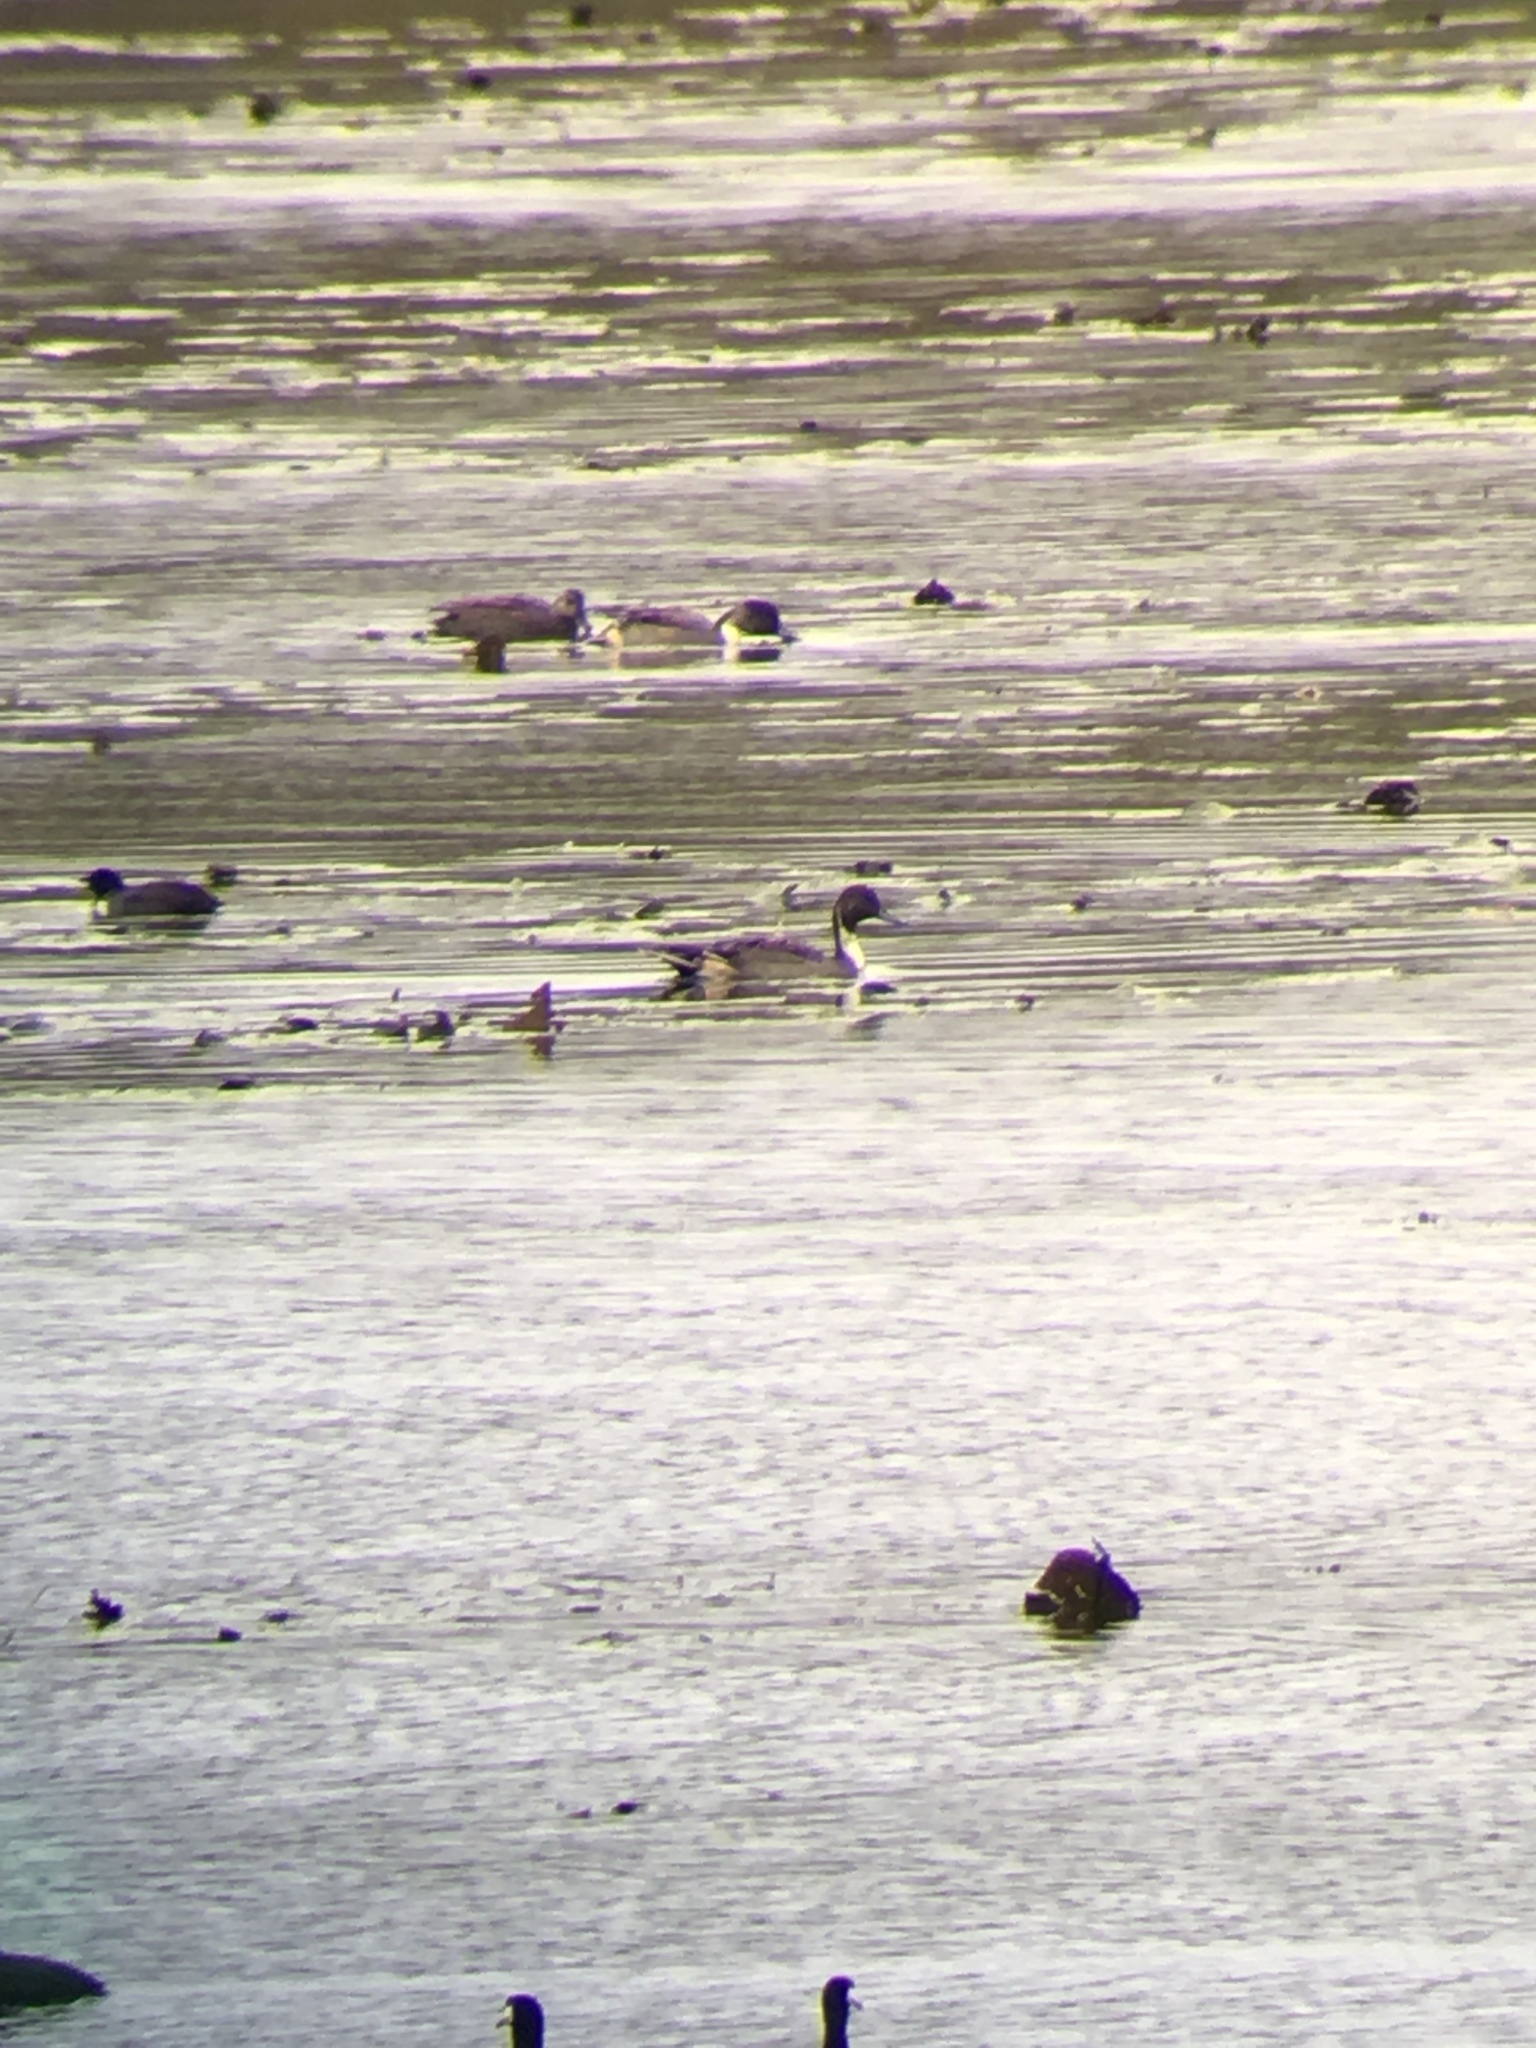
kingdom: Animalia
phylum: Chordata
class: Aves
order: Anseriformes
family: Anatidae
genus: Anas
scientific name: Anas acuta
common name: Northern pintail
